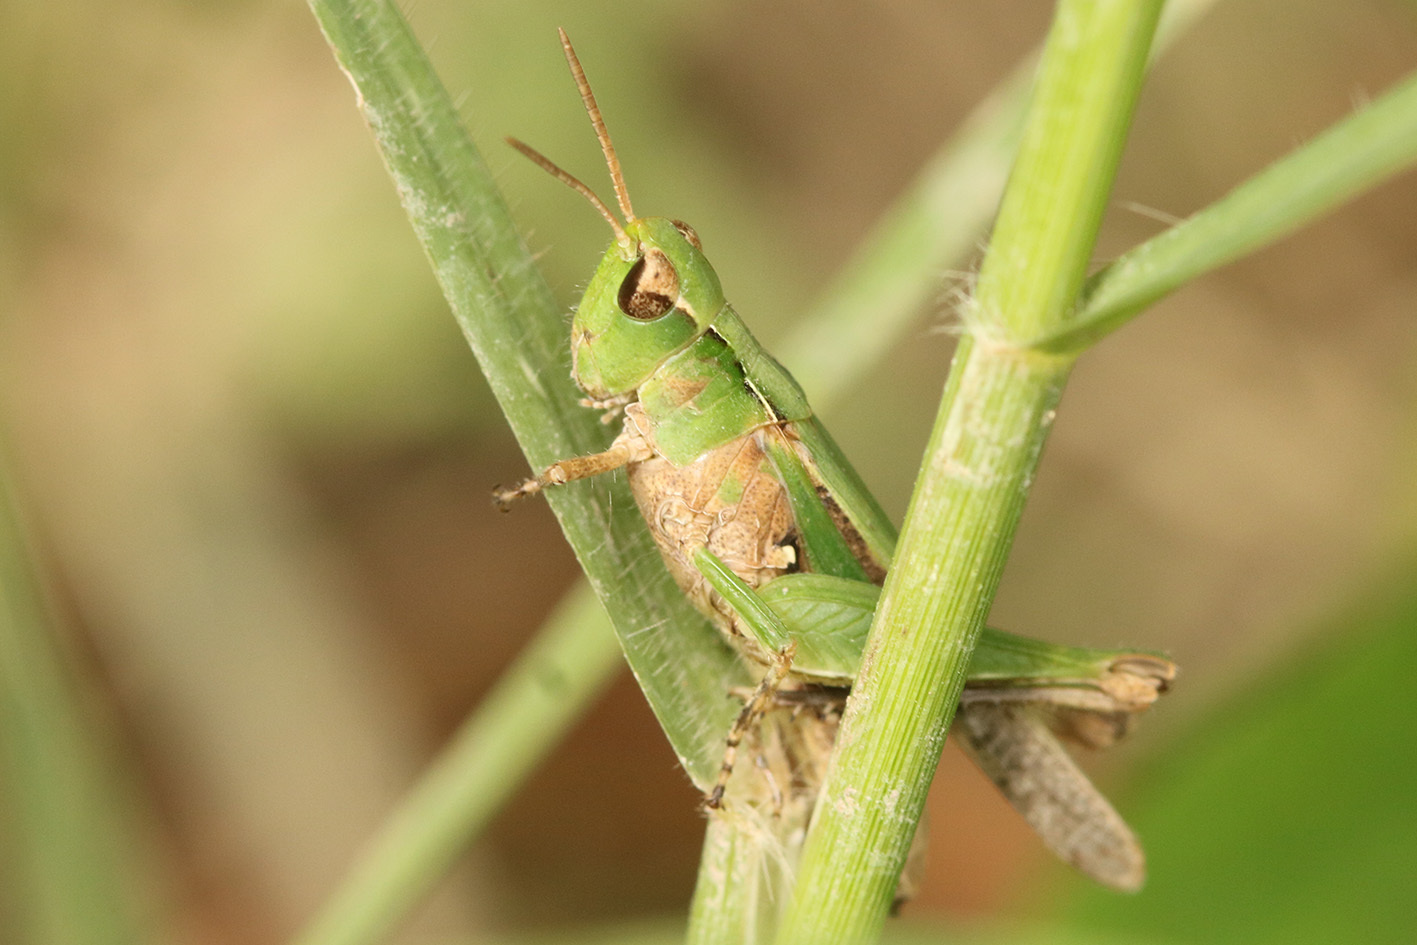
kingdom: Animalia
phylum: Arthropoda
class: Insecta
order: Orthoptera
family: Acrididae
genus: Orphulella
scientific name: Orphulella punctata
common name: Slant-faced grasshopper
